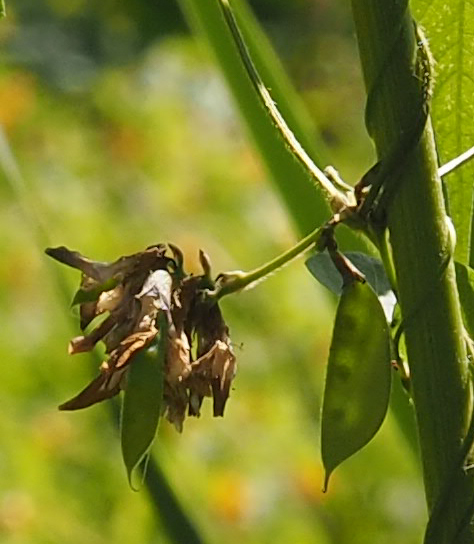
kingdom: Plantae
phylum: Tracheophyta
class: Magnoliopsida
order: Fabales
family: Fabaceae
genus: Amphicarpaea
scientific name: Amphicarpaea bracteata
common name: American hog peanut
